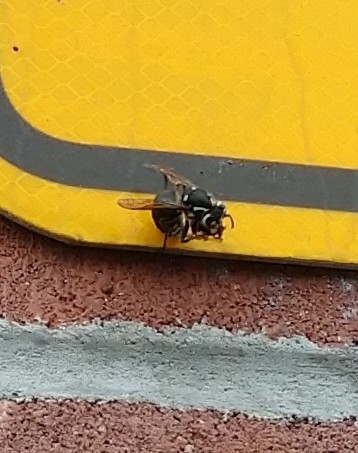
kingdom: Animalia
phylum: Arthropoda
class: Insecta
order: Hymenoptera
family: Vespidae
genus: Dolichovespula
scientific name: Dolichovespula maculata
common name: Bald-faced hornet
